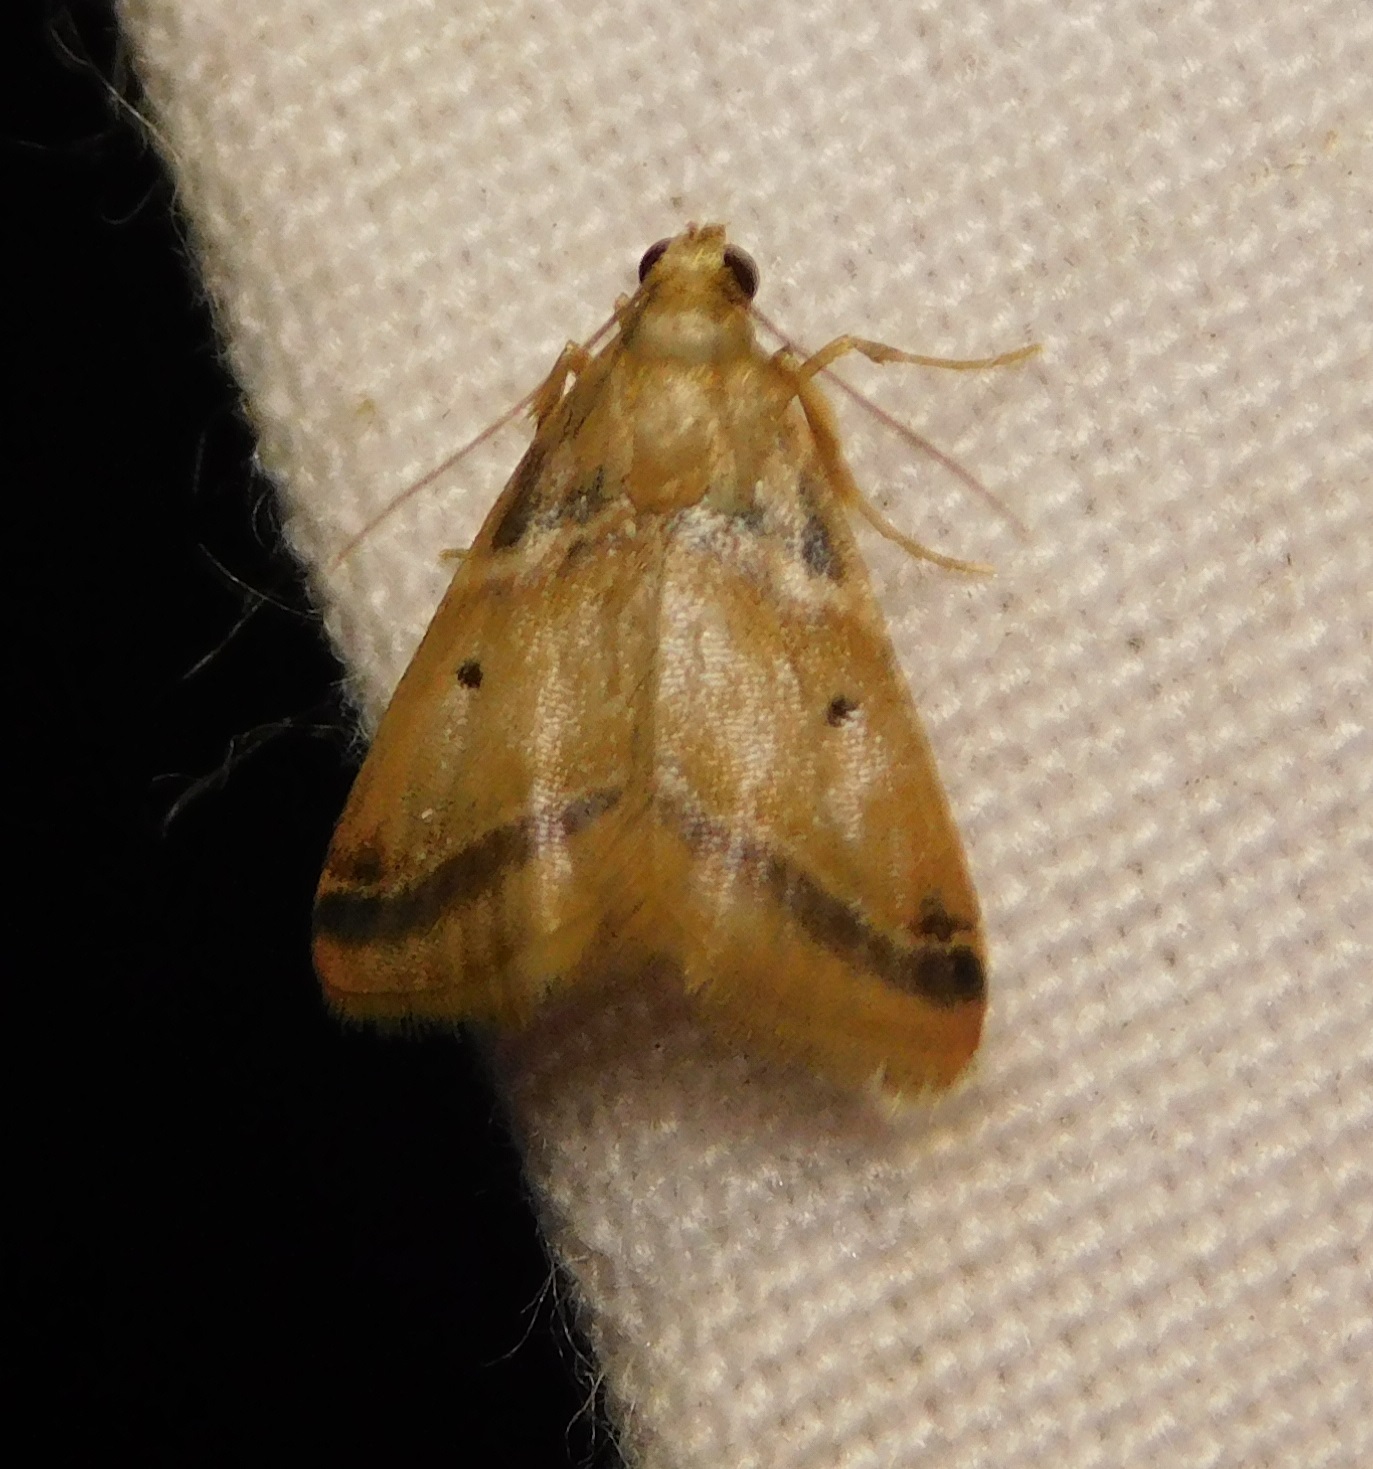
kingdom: Animalia
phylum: Arthropoda
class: Insecta
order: Lepidoptera
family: Pyralidae
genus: Tanyethira
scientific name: Tanyethira duplicilinea
